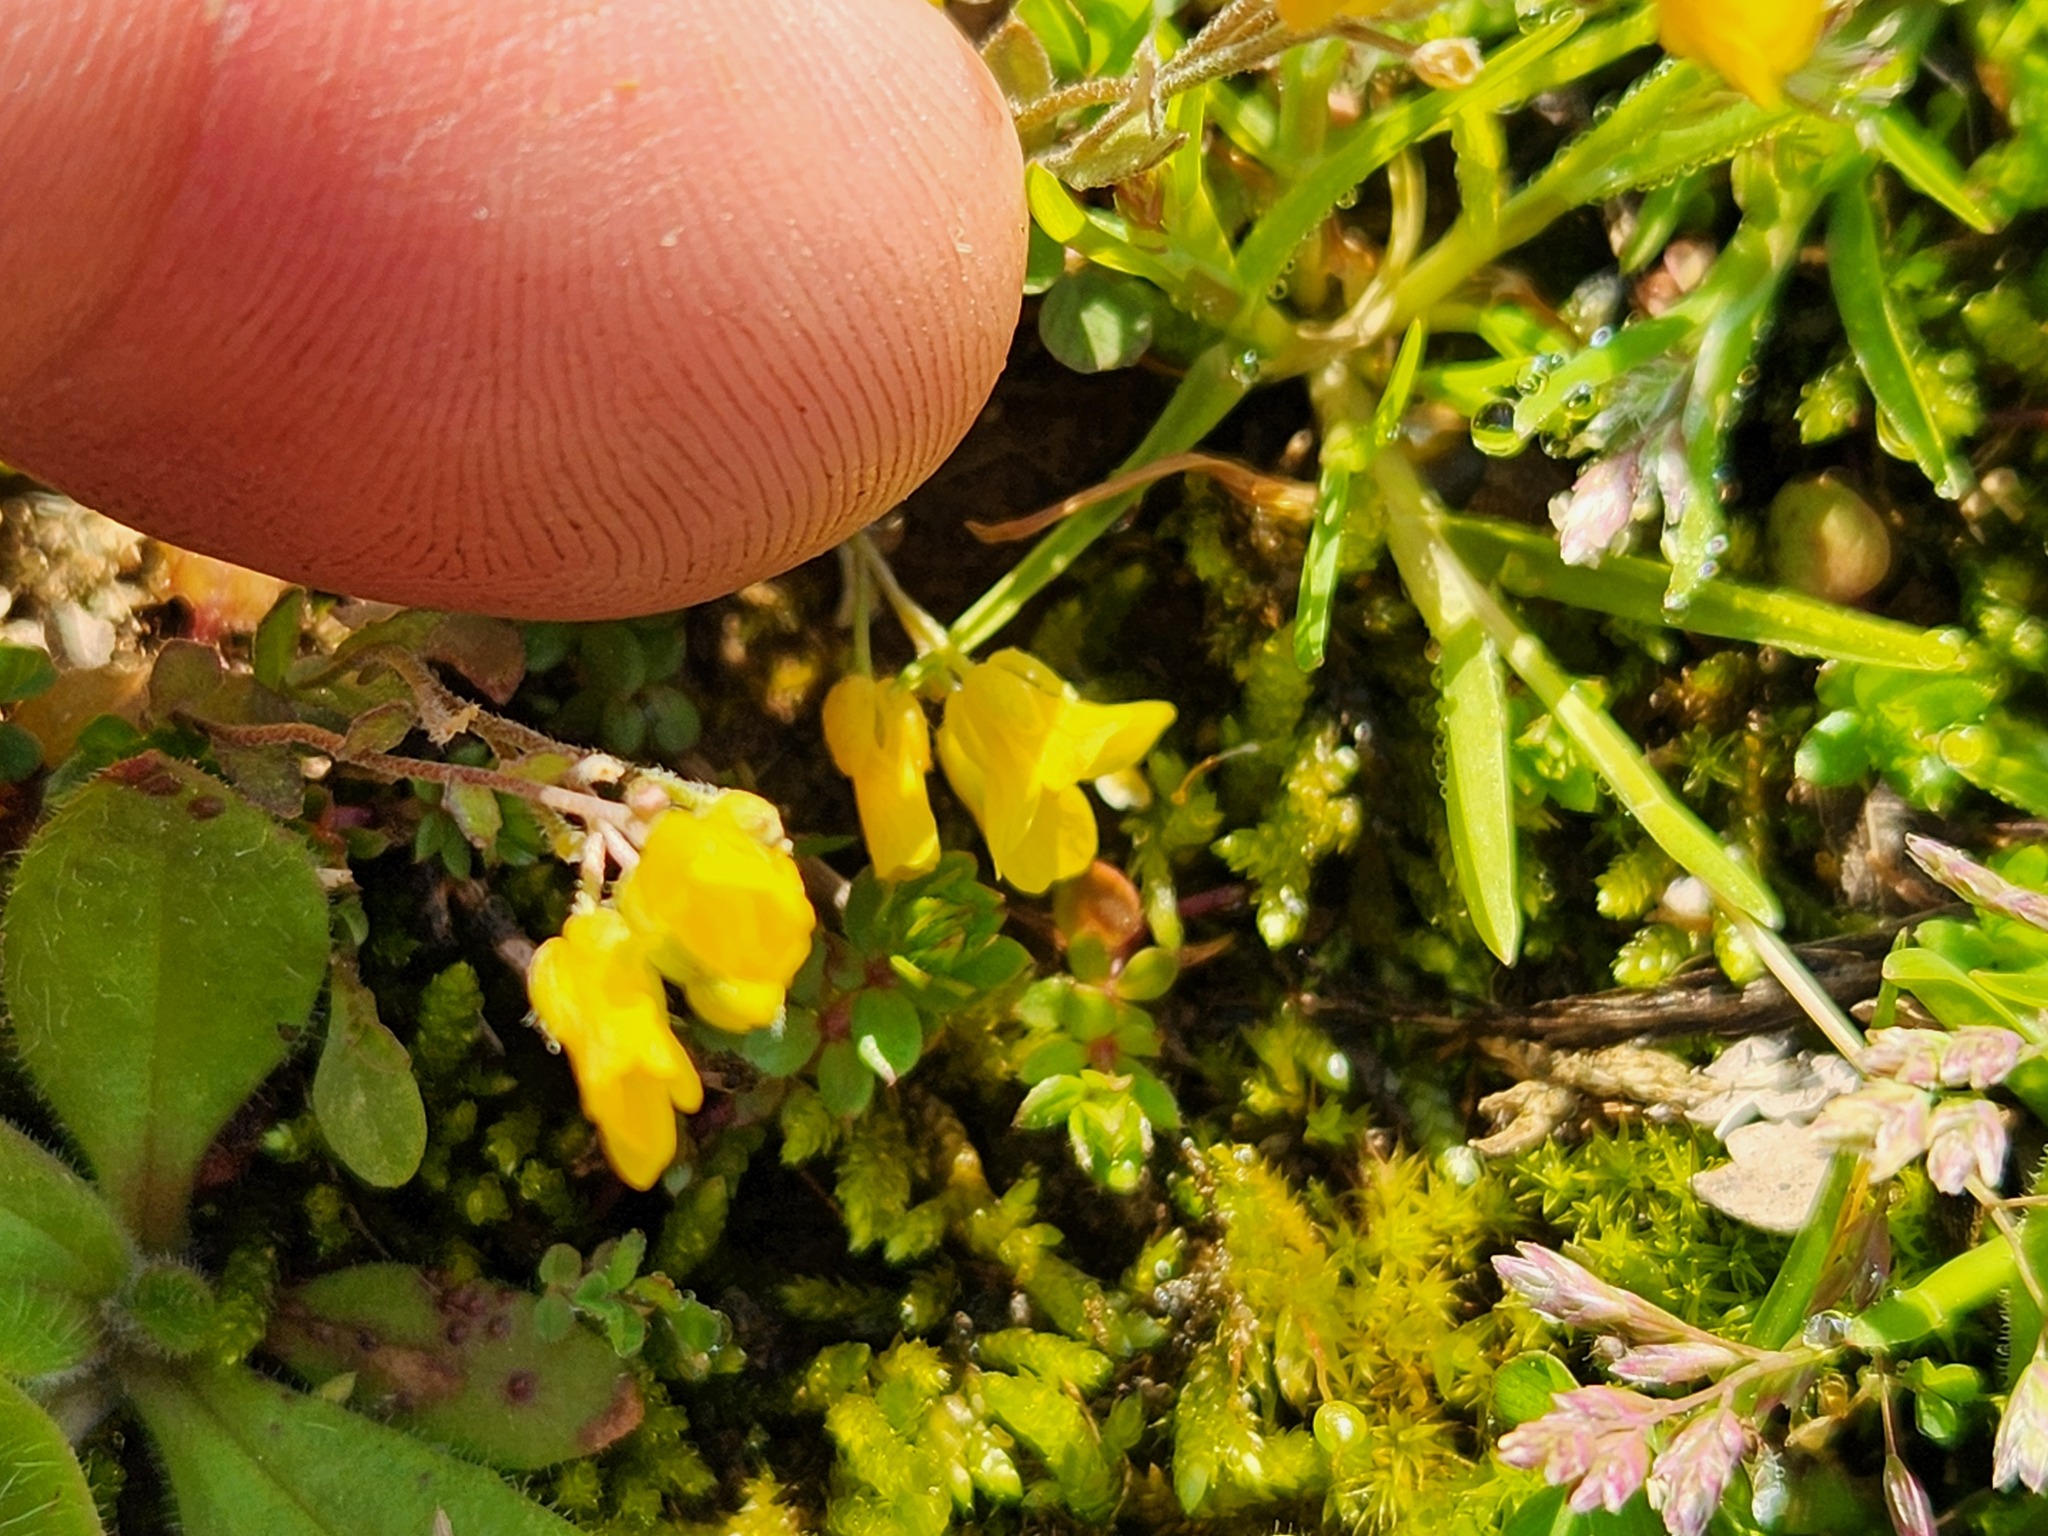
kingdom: Plantae
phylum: Tracheophyta
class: Magnoliopsida
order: Brassicales
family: Brassicaceae
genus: Paysonia
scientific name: Paysonia lescurii
